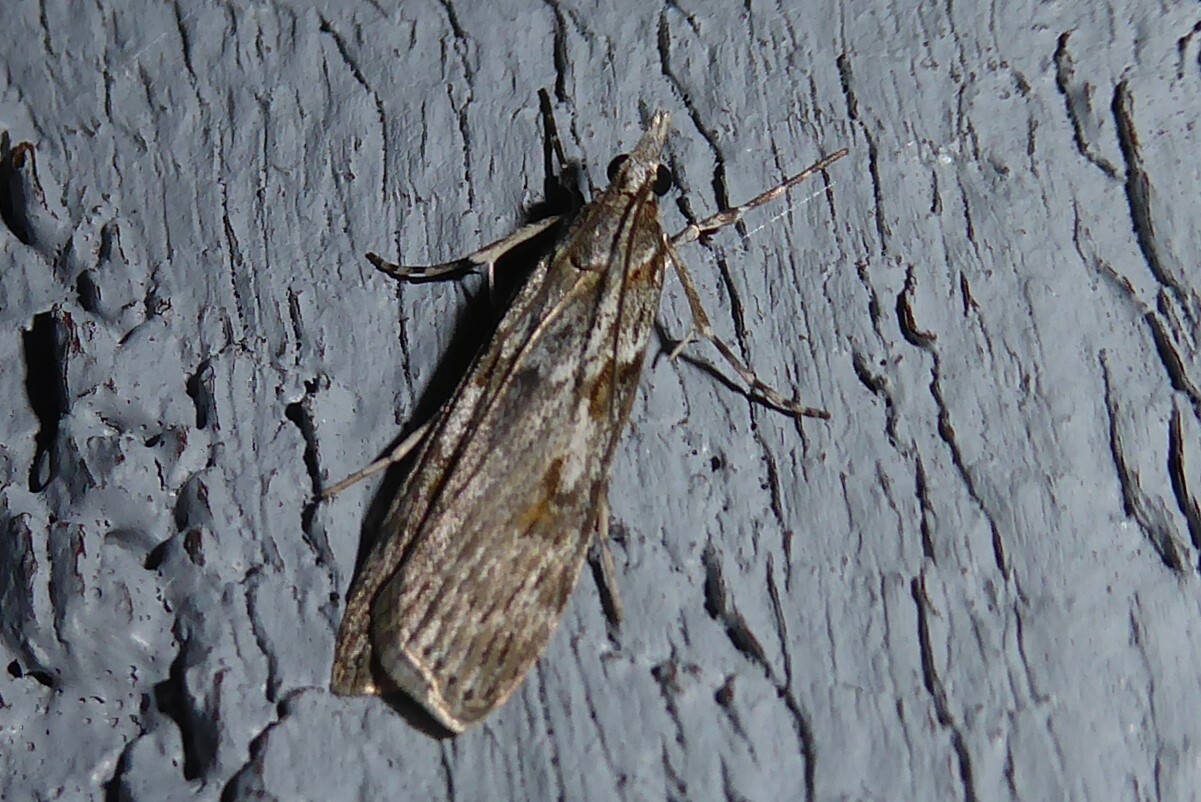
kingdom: Animalia
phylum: Arthropoda
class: Insecta
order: Lepidoptera
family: Crambidae
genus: Scoparia
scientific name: Scoparia halopis
